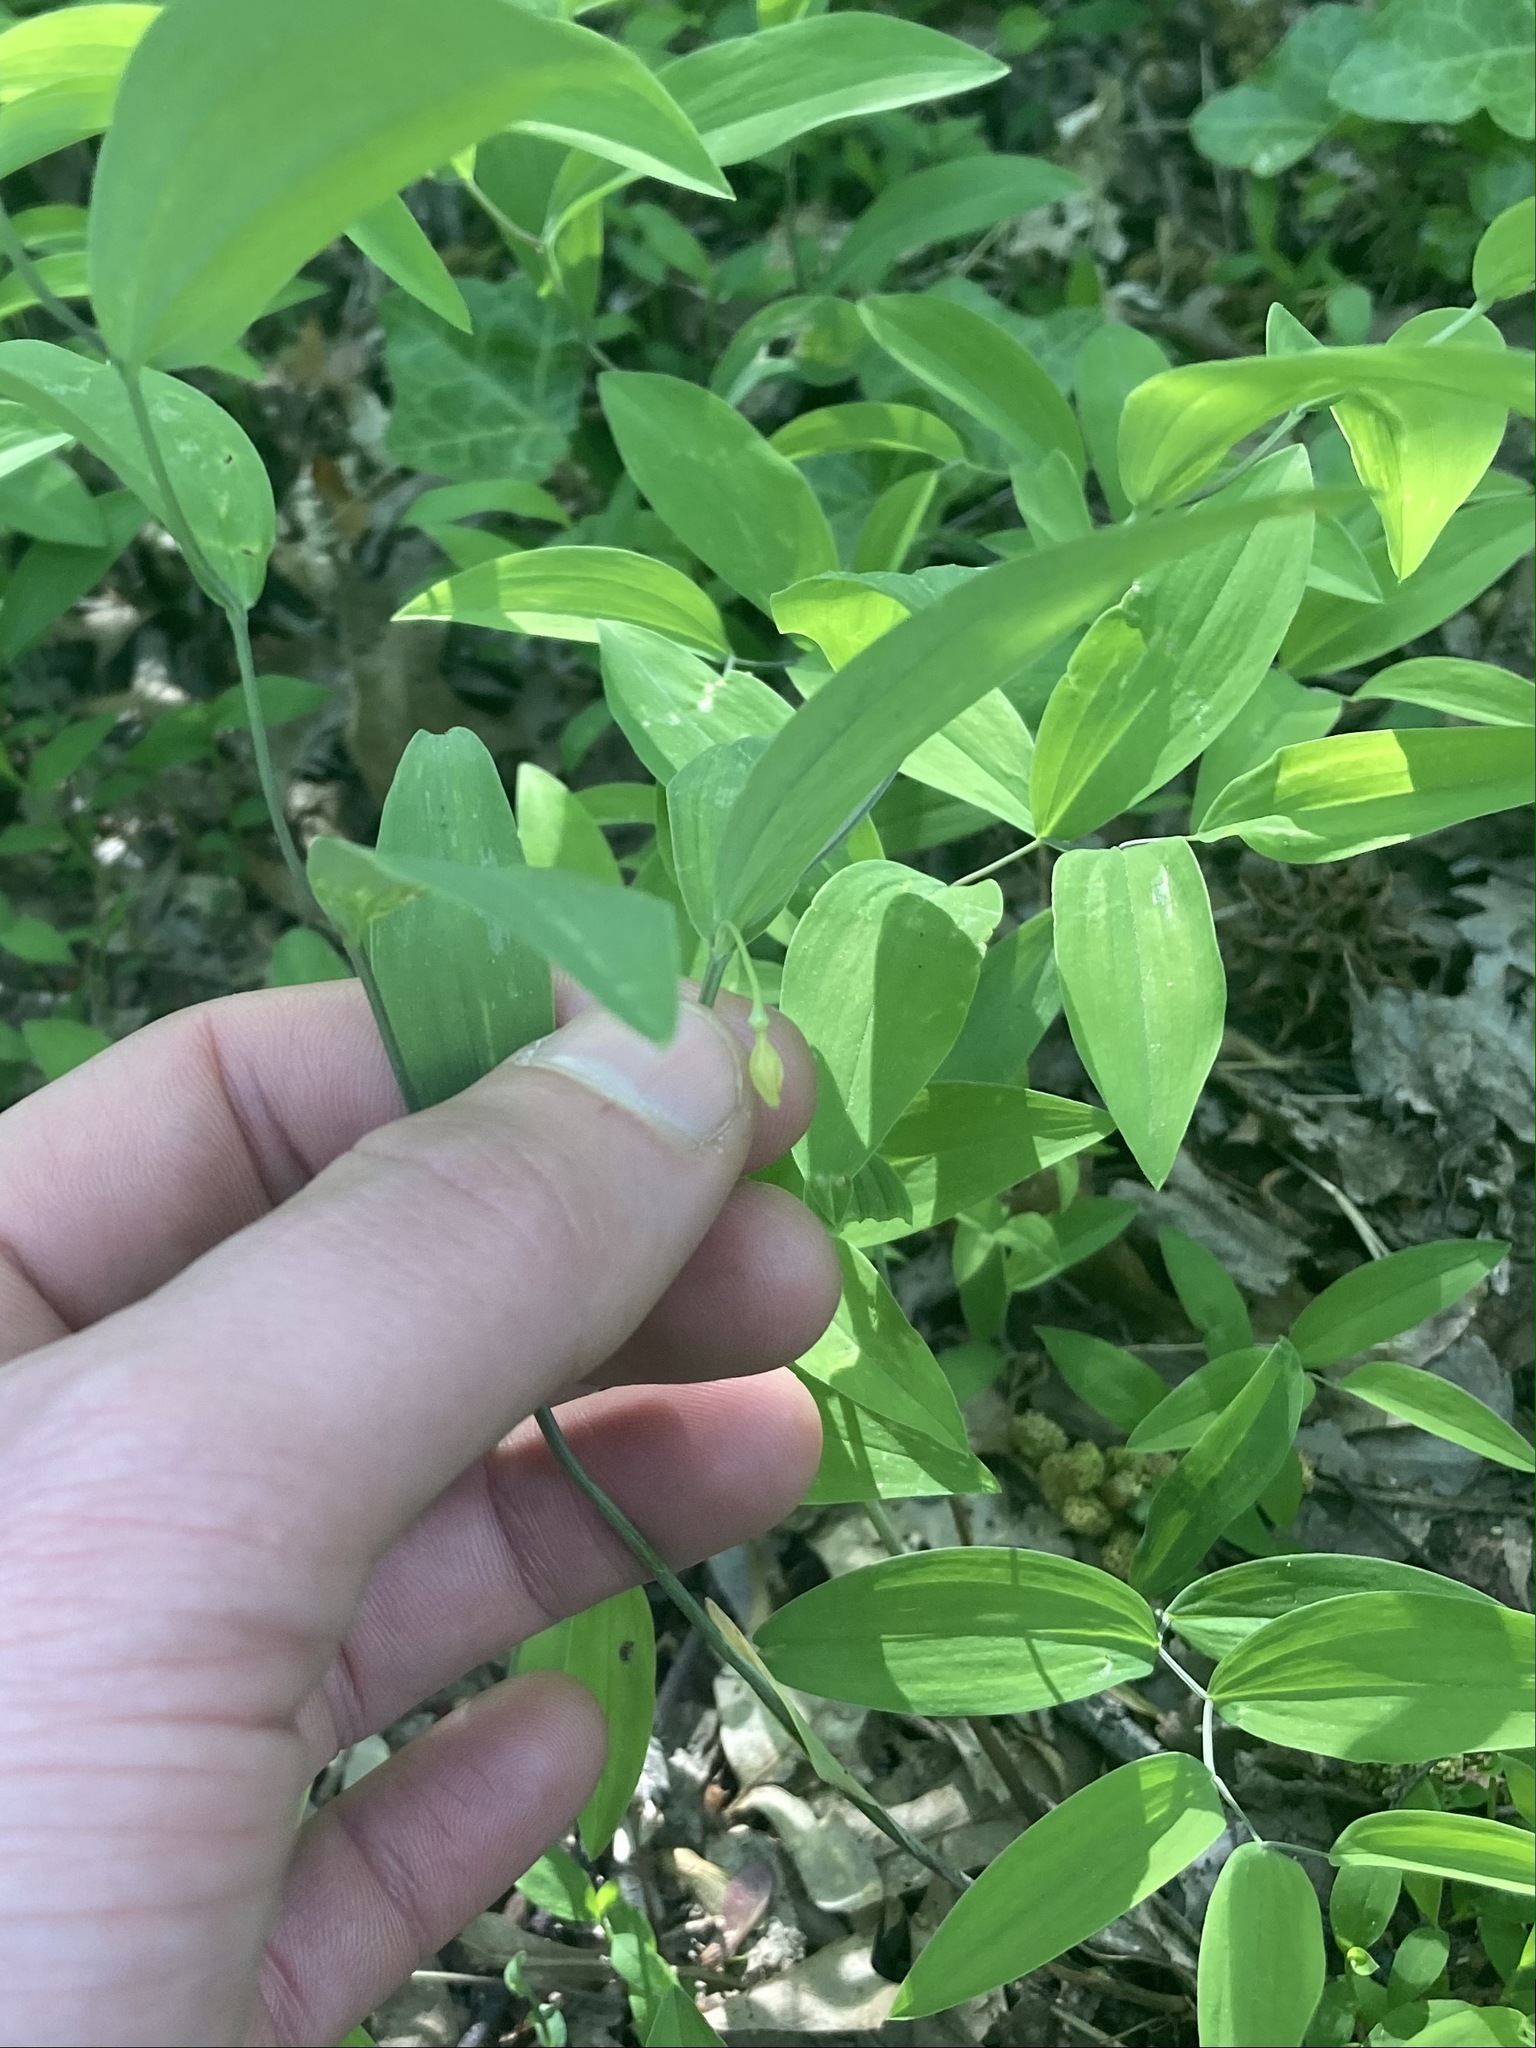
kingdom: Plantae
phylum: Tracheophyta
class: Liliopsida
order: Liliales
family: Colchicaceae
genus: Uvularia
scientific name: Uvularia sessilifolia
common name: Straw-lily
